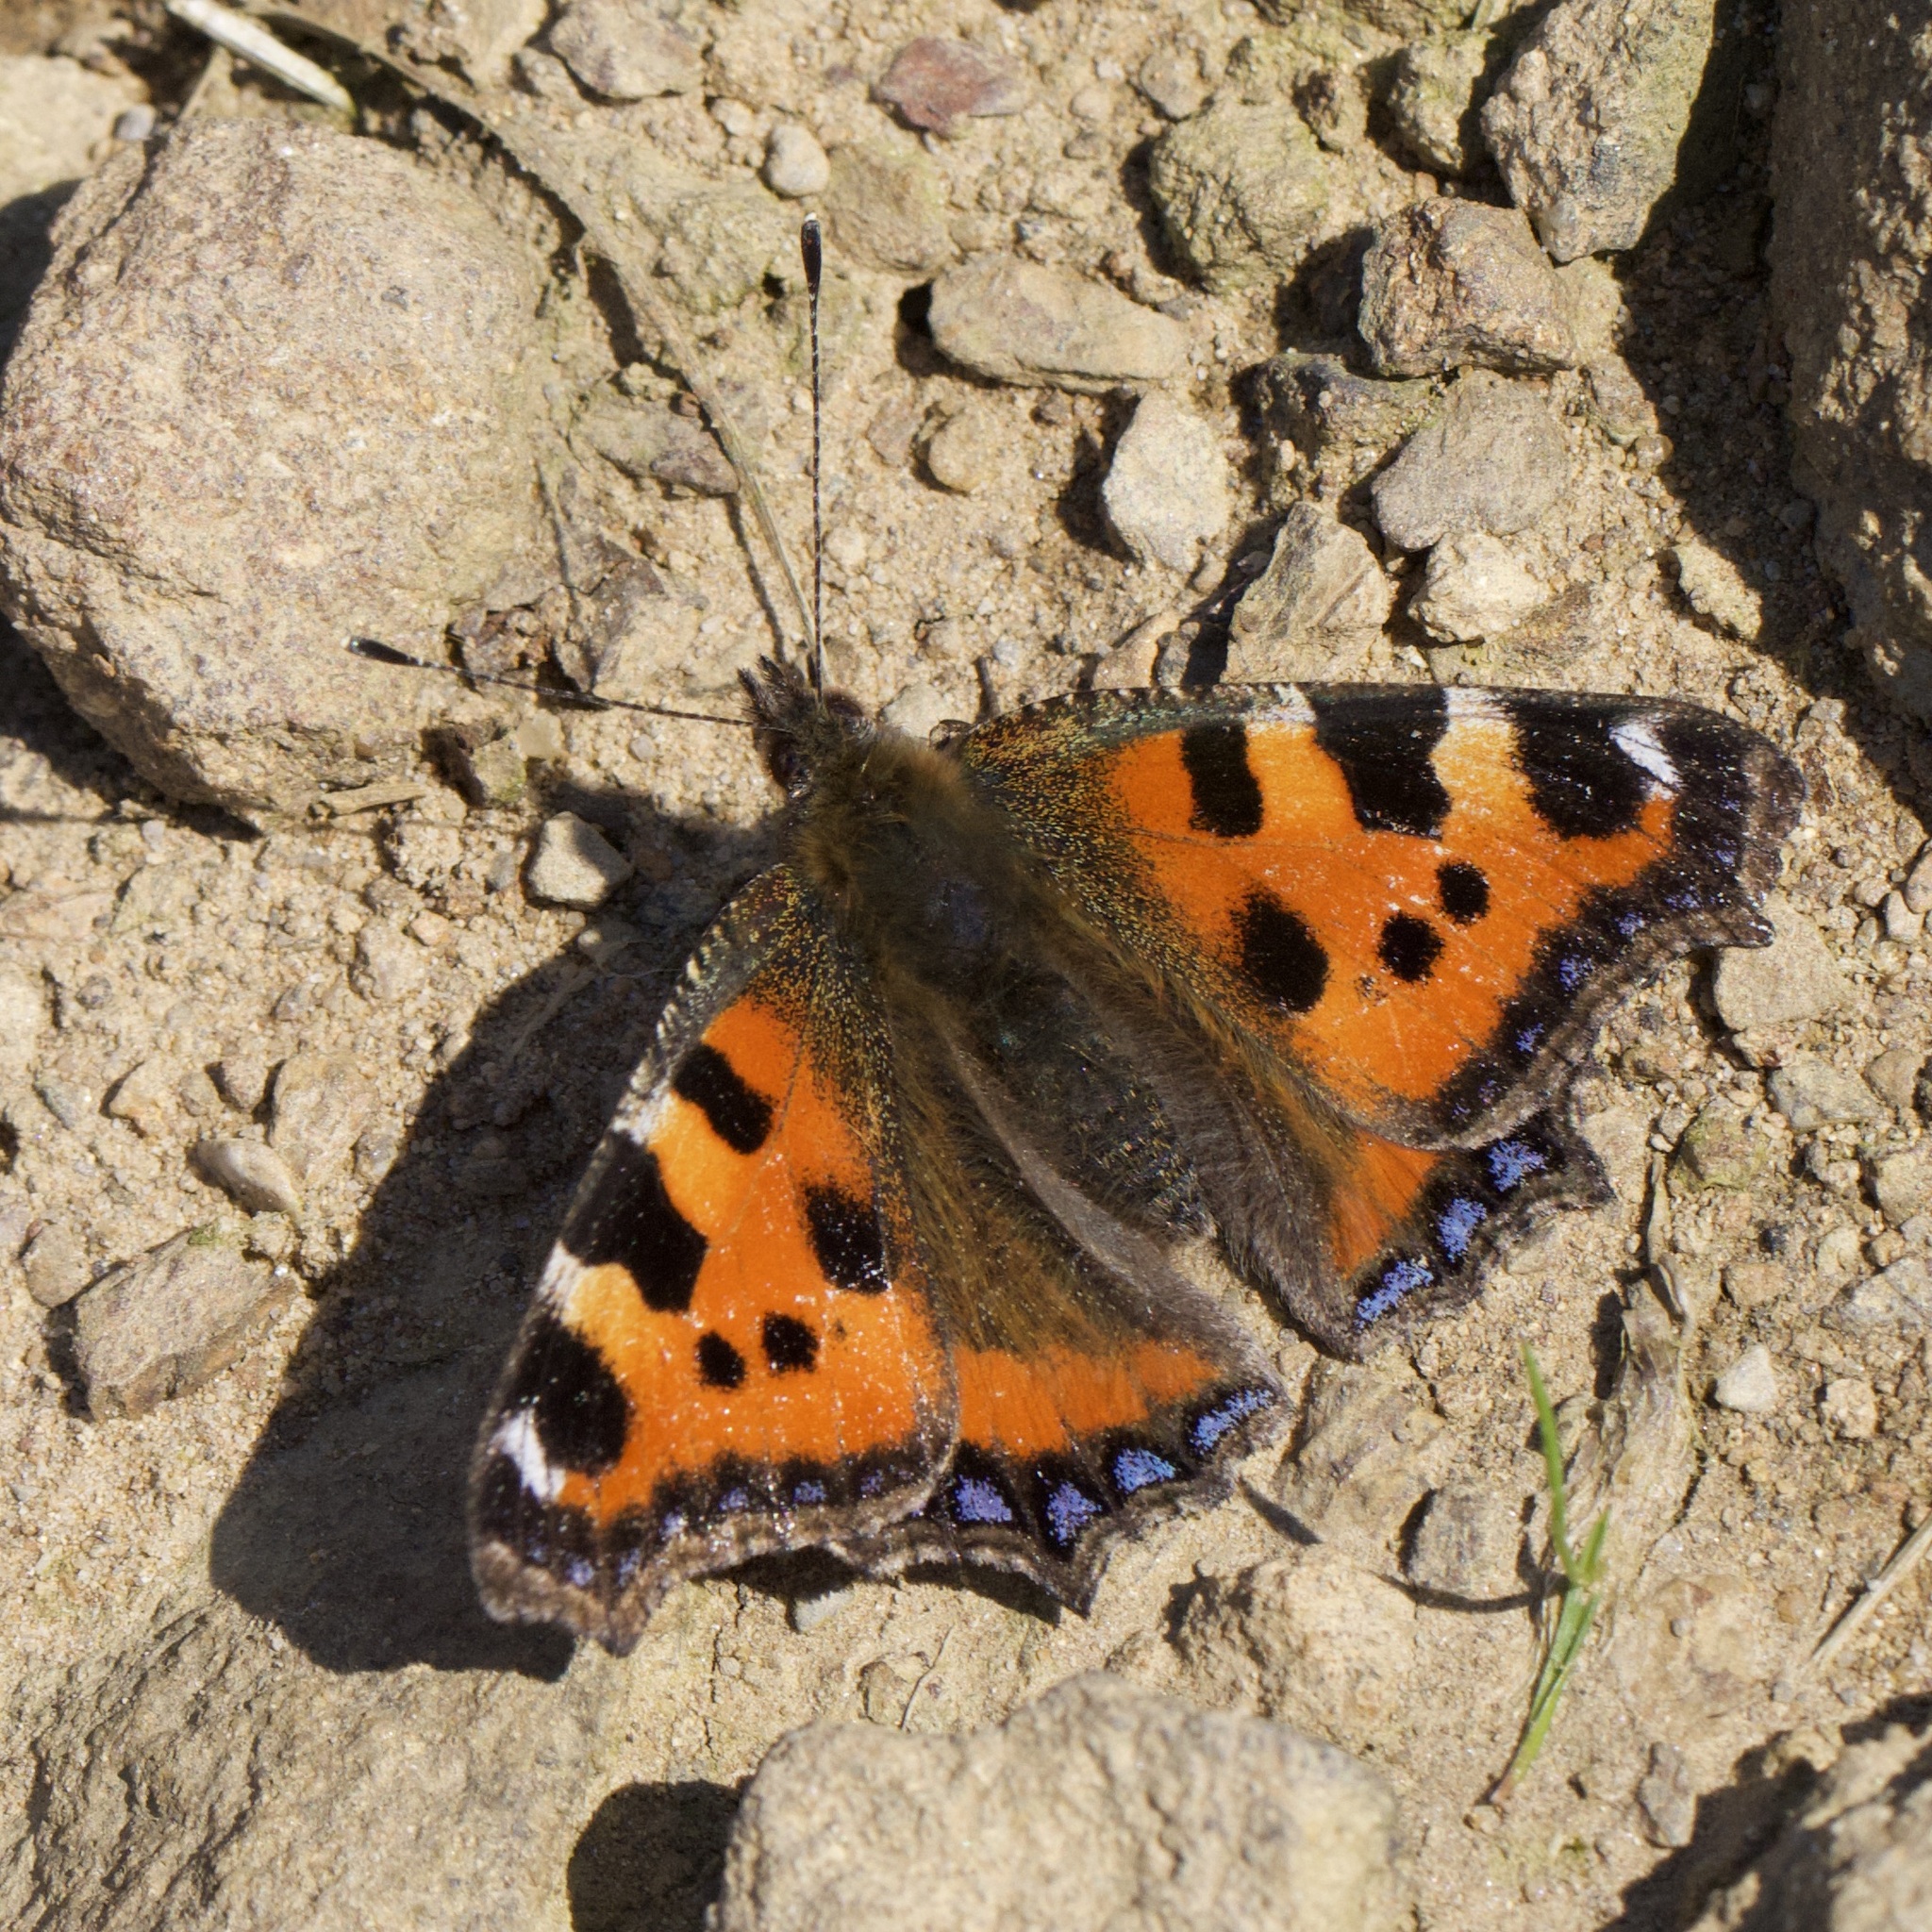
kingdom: Animalia
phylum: Arthropoda
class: Insecta
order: Lepidoptera
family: Nymphalidae
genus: Aglais
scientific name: Aglais urticae
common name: Small tortoiseshell
